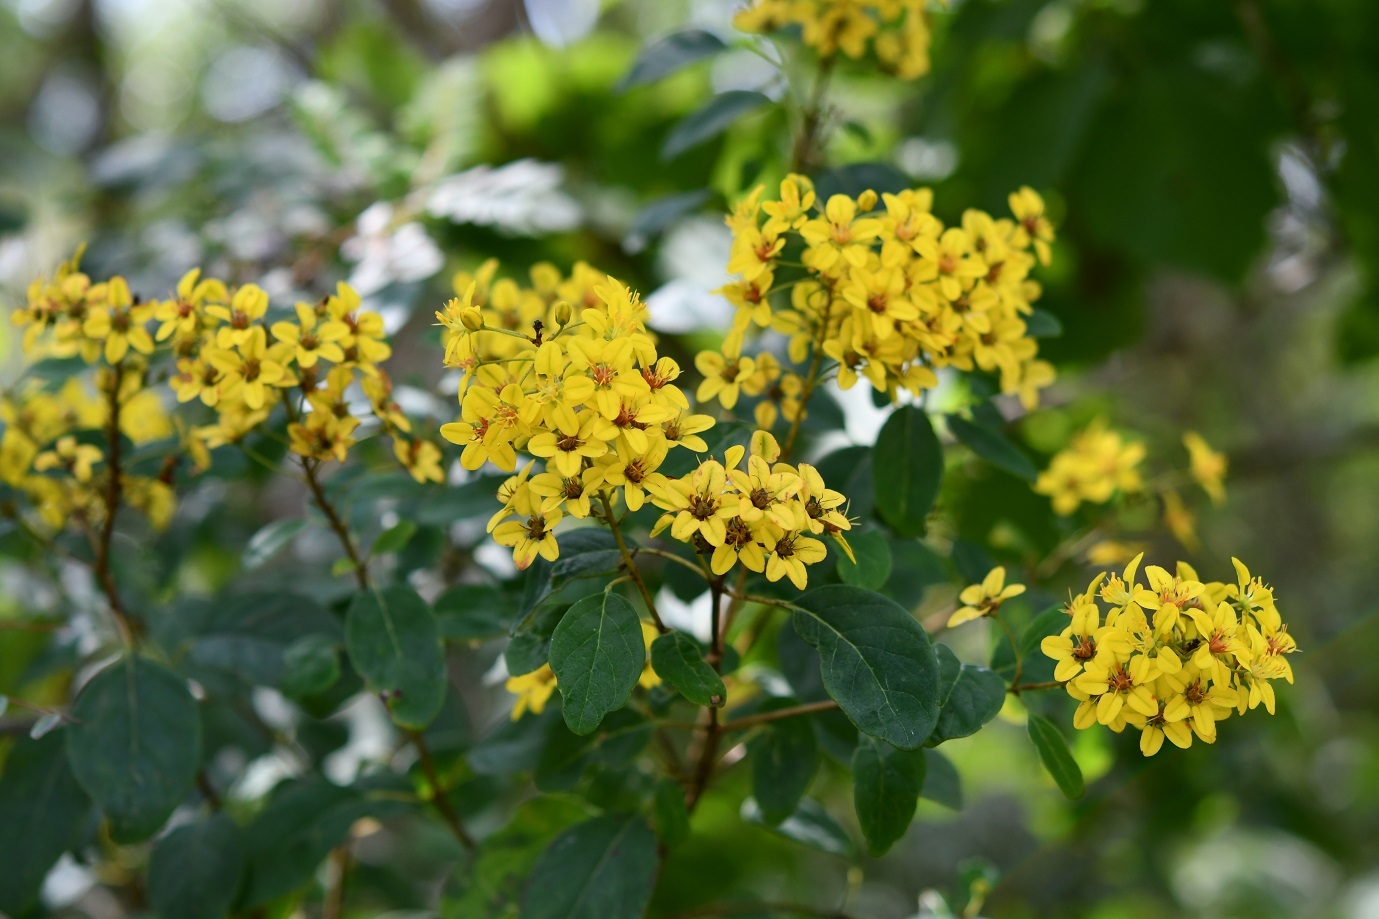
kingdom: Plantae
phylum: Tracheophyta
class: Magnoliopsida
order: Malpighiales
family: Malpighiaceae
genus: Galphimia
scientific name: Galphimia speciosa
